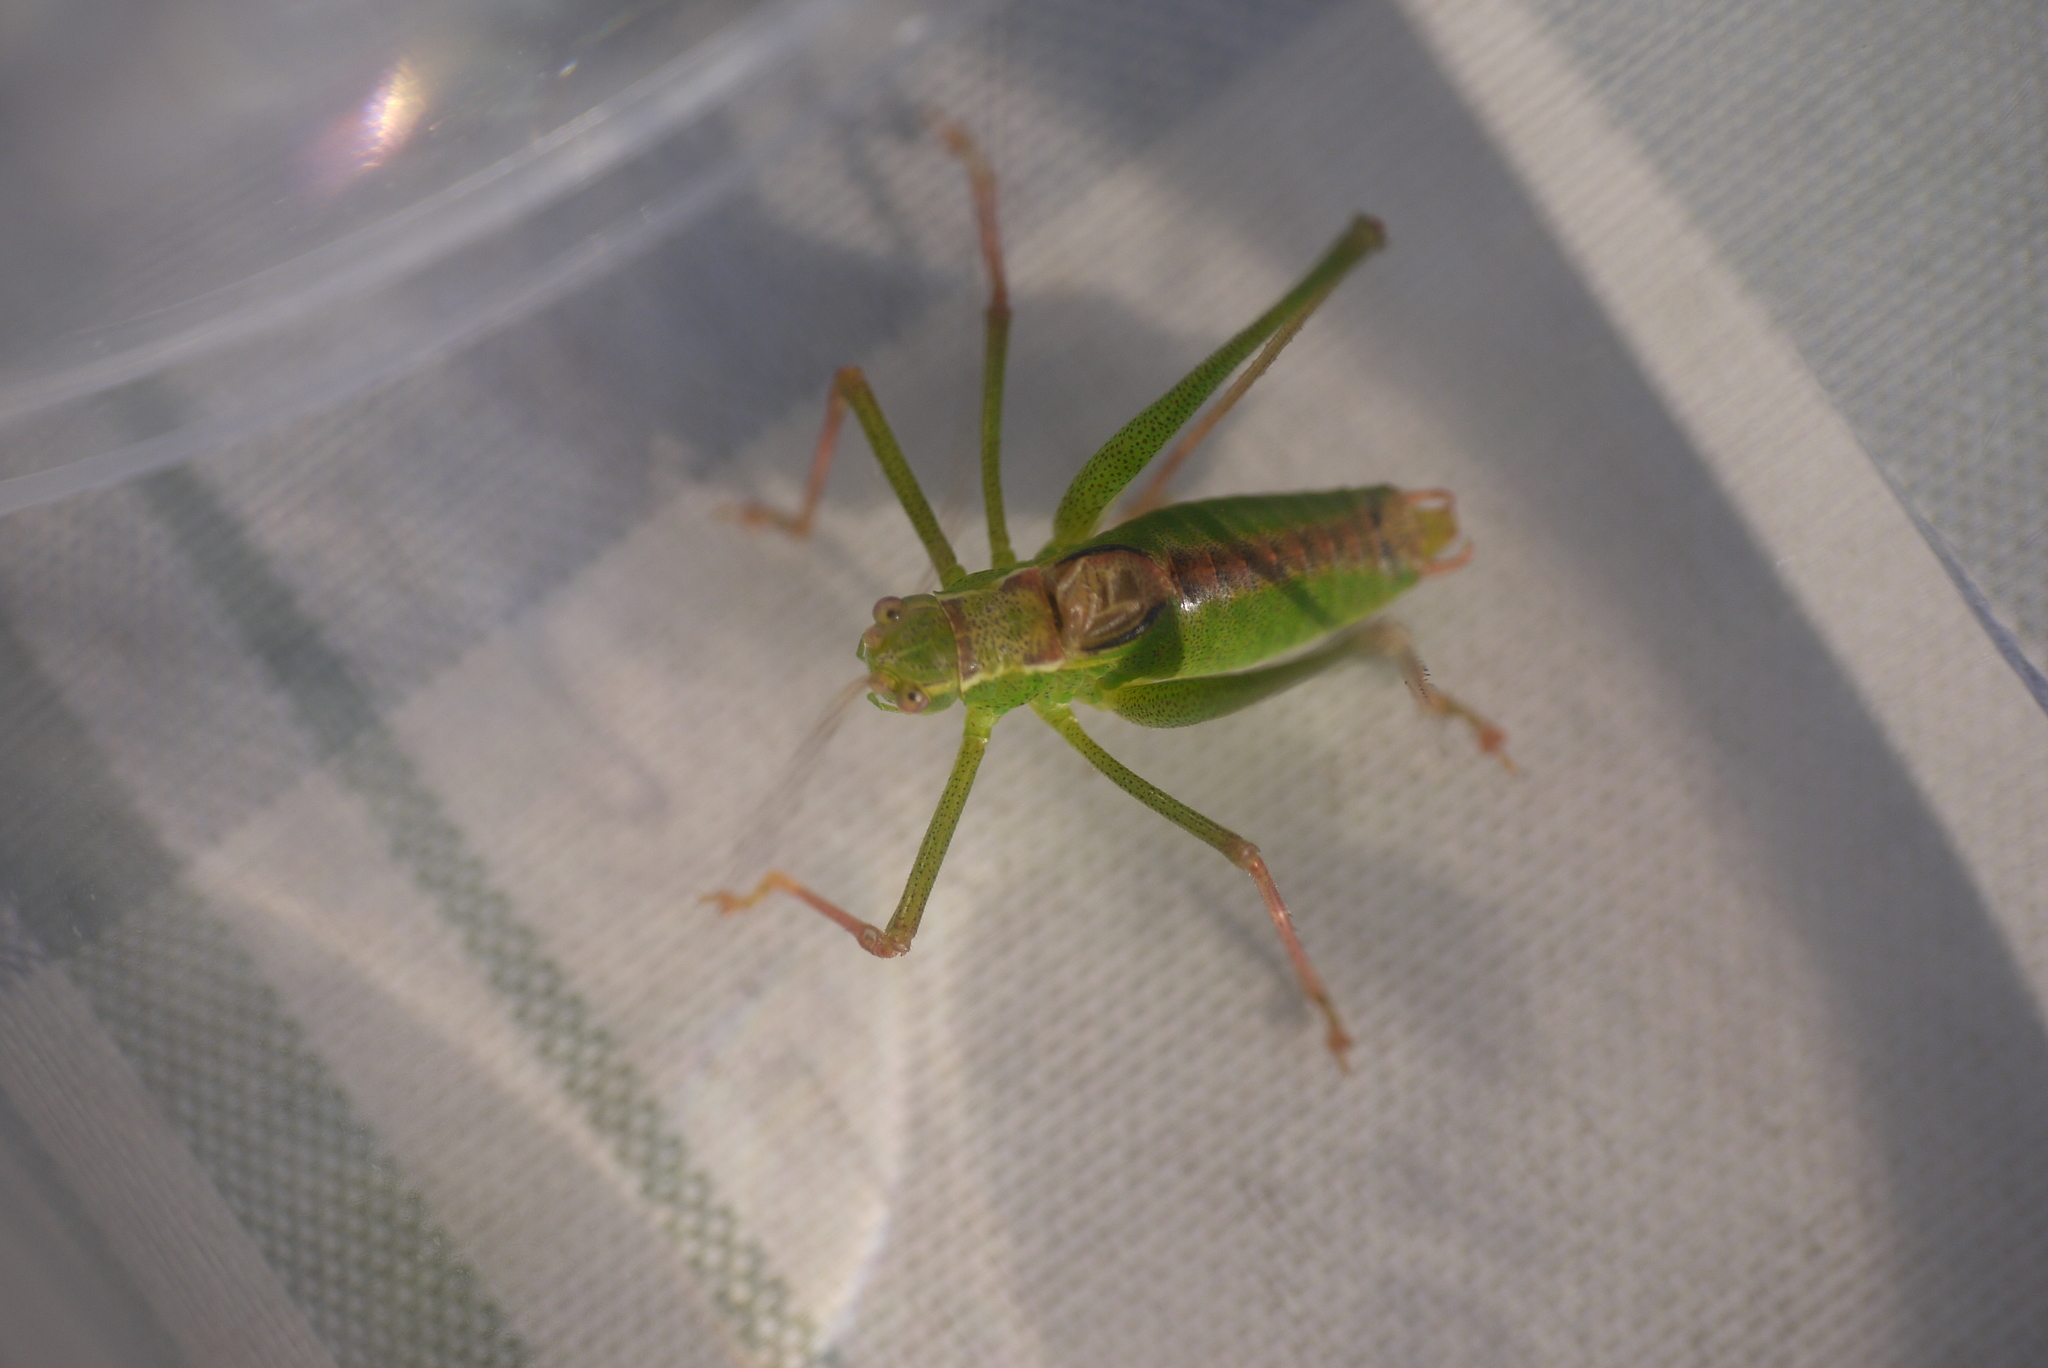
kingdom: Animalia
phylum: Arthropoda
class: Insecta
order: Orthoptera
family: Tettigoniidae
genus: Leptophyes
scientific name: Leptophyes punctatissima
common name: Speckled bush-cricket
